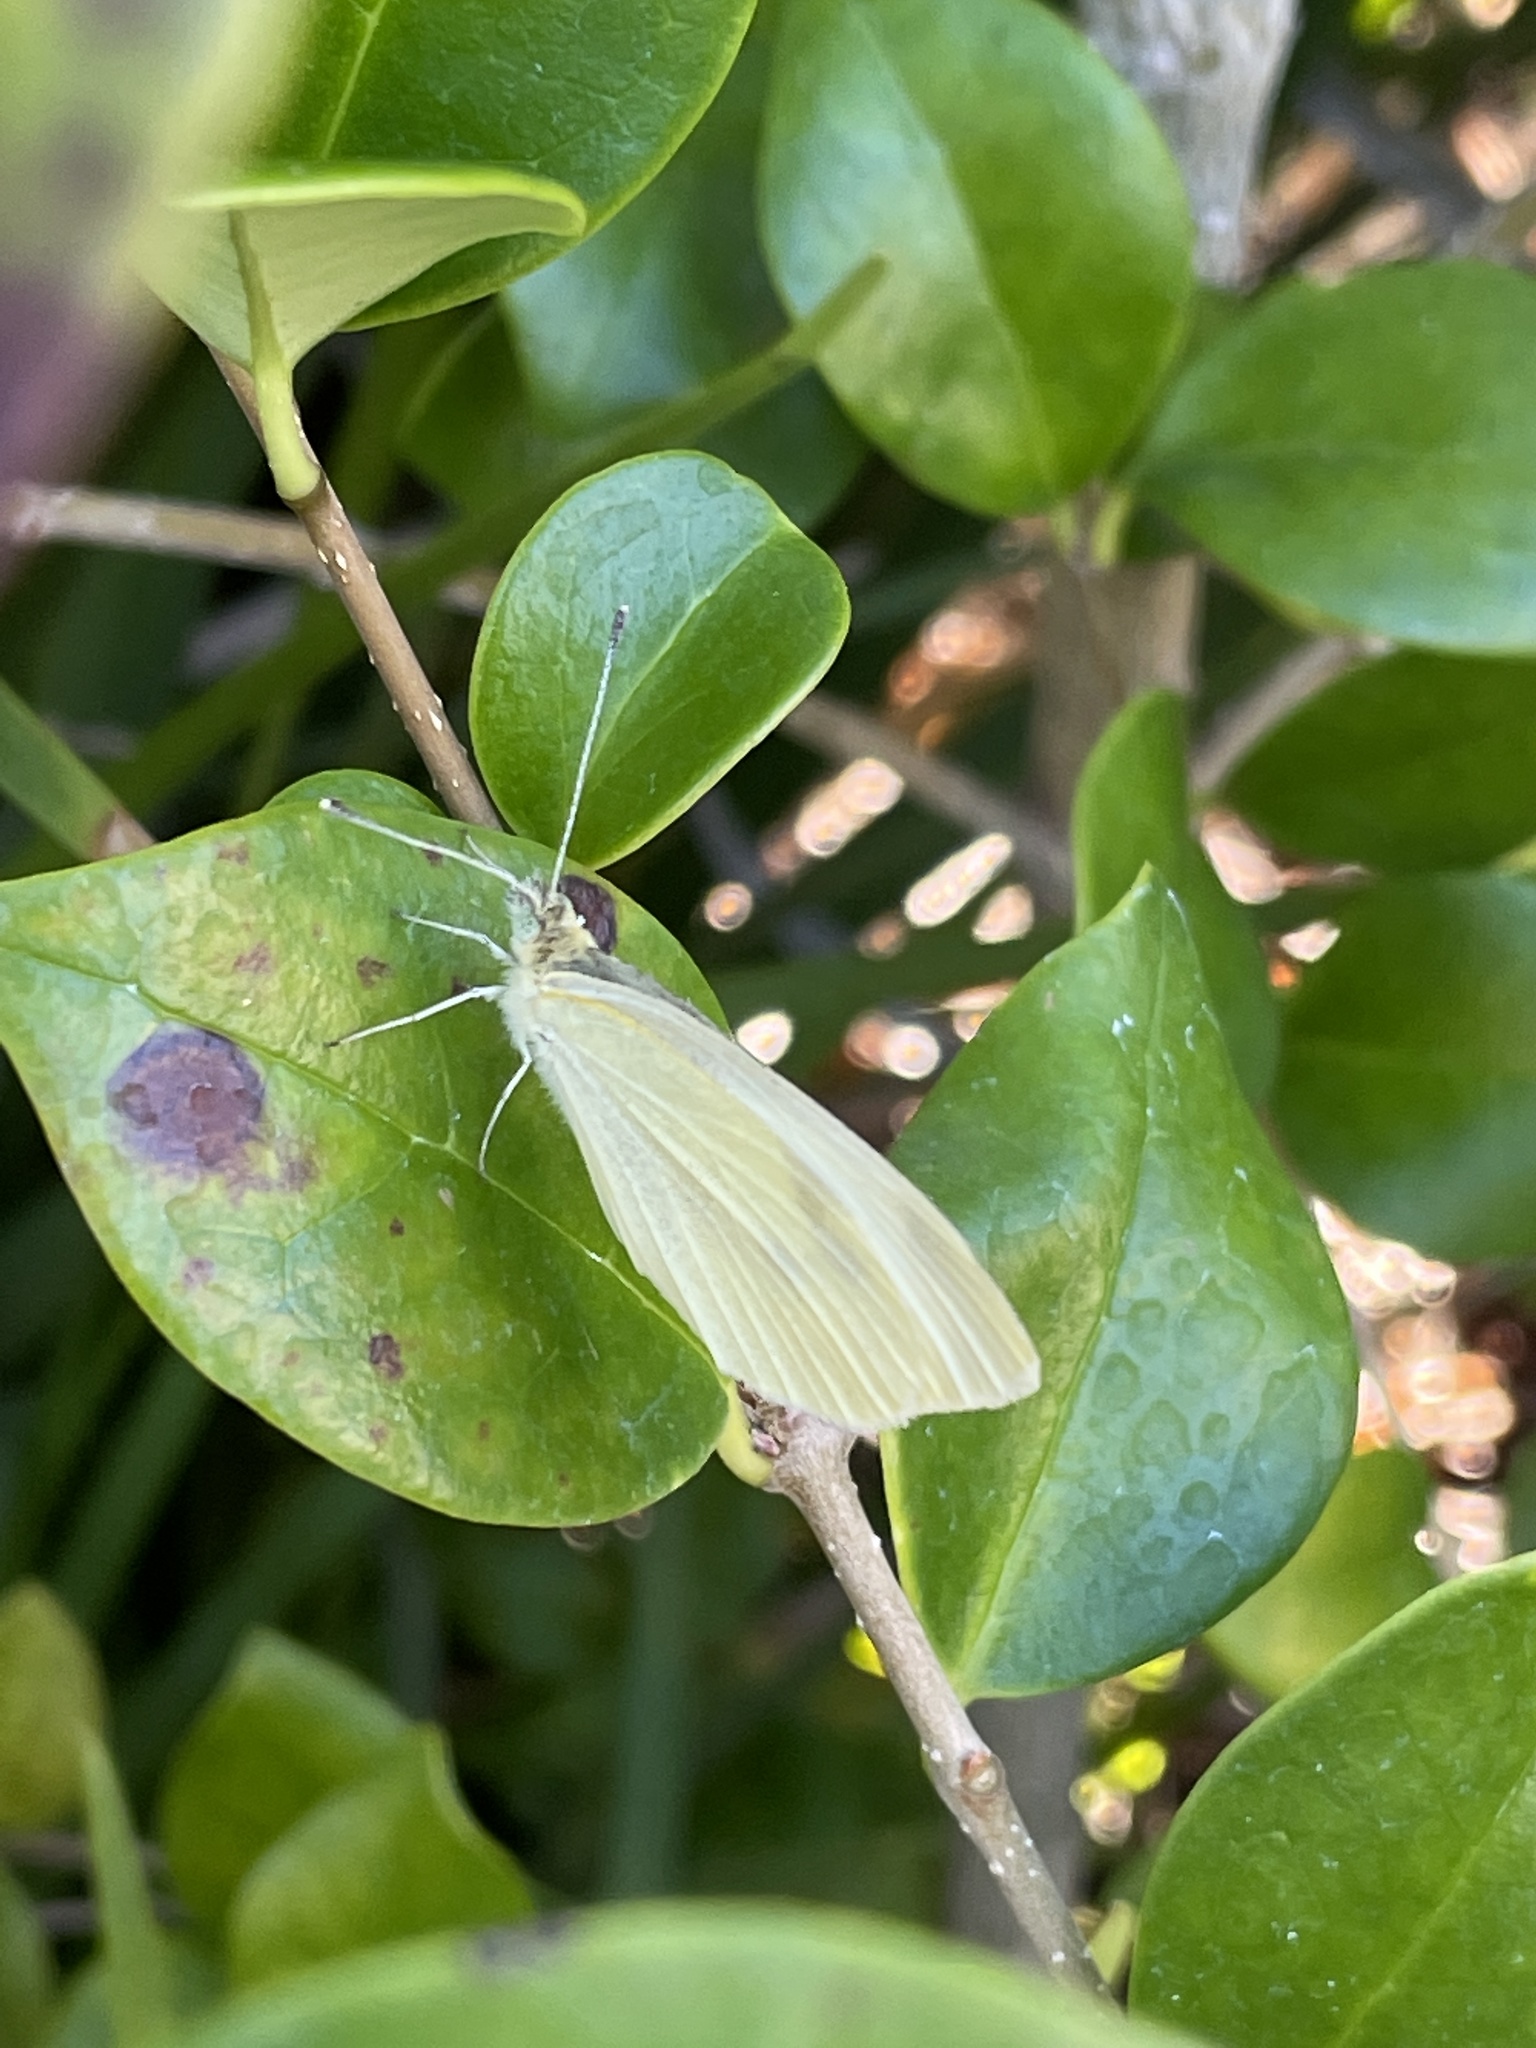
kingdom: Animalia
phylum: Arthropoda
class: Insecta
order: Lepidoptera
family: Pieridae
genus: Pieris
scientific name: Pieris rapae
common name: Small white
